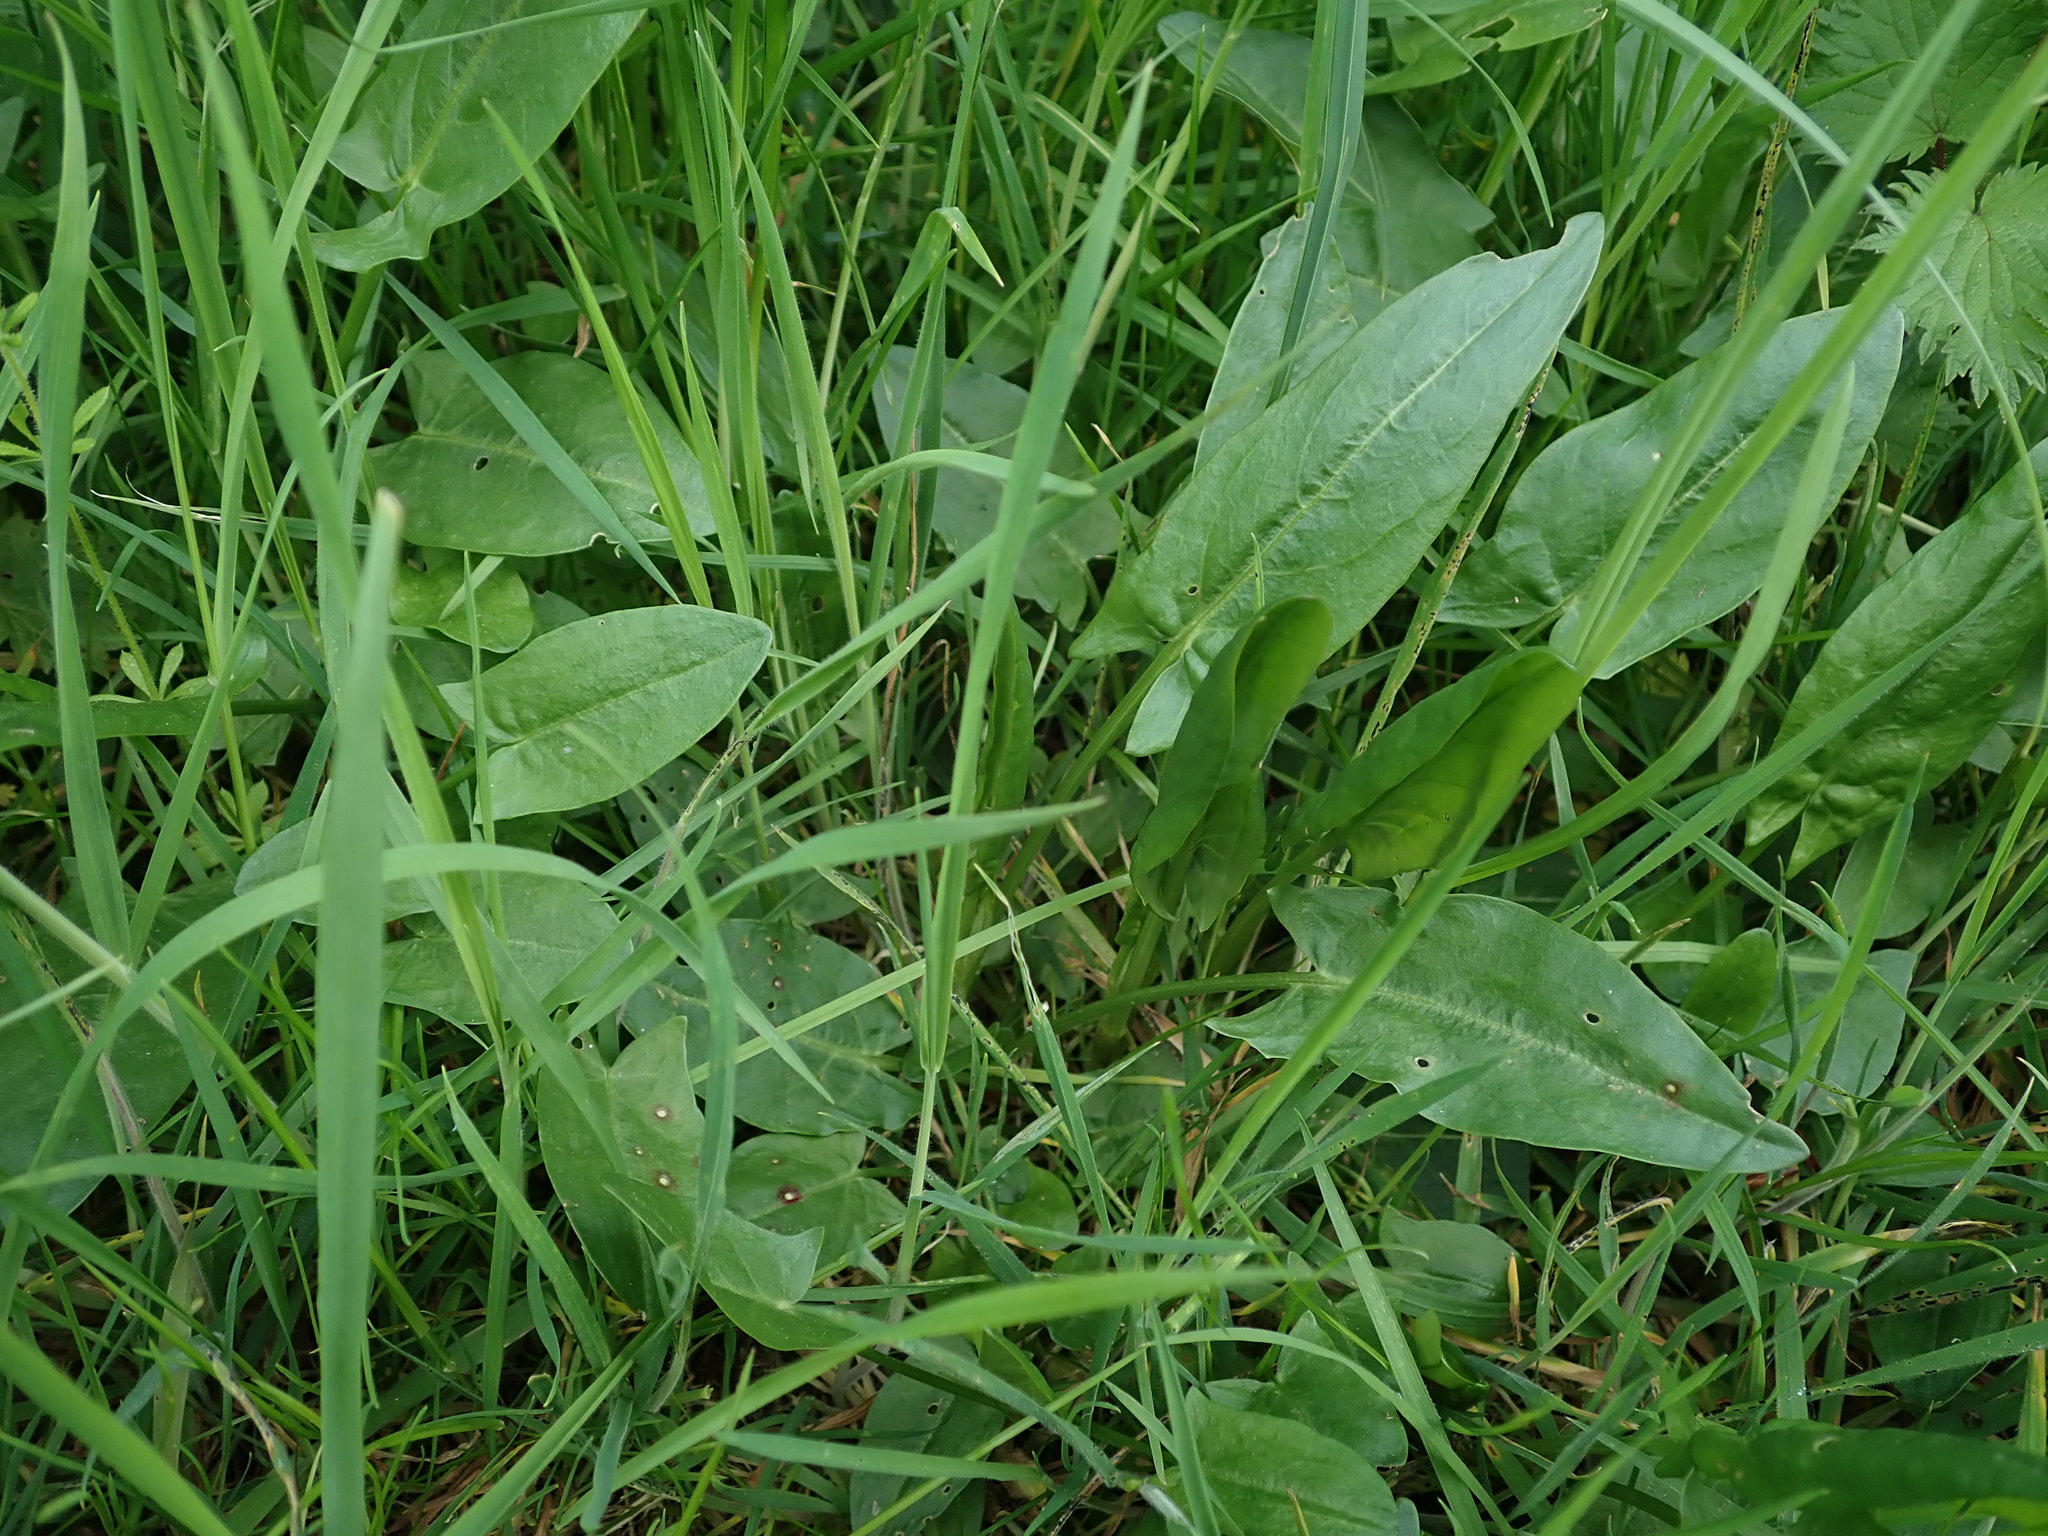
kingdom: Plantae
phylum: Tracheophyta
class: Magnoliopsida
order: Caryophyllales
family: Polygonaceae
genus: Rumex
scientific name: Rumex acetosa
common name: Garden sorrel
